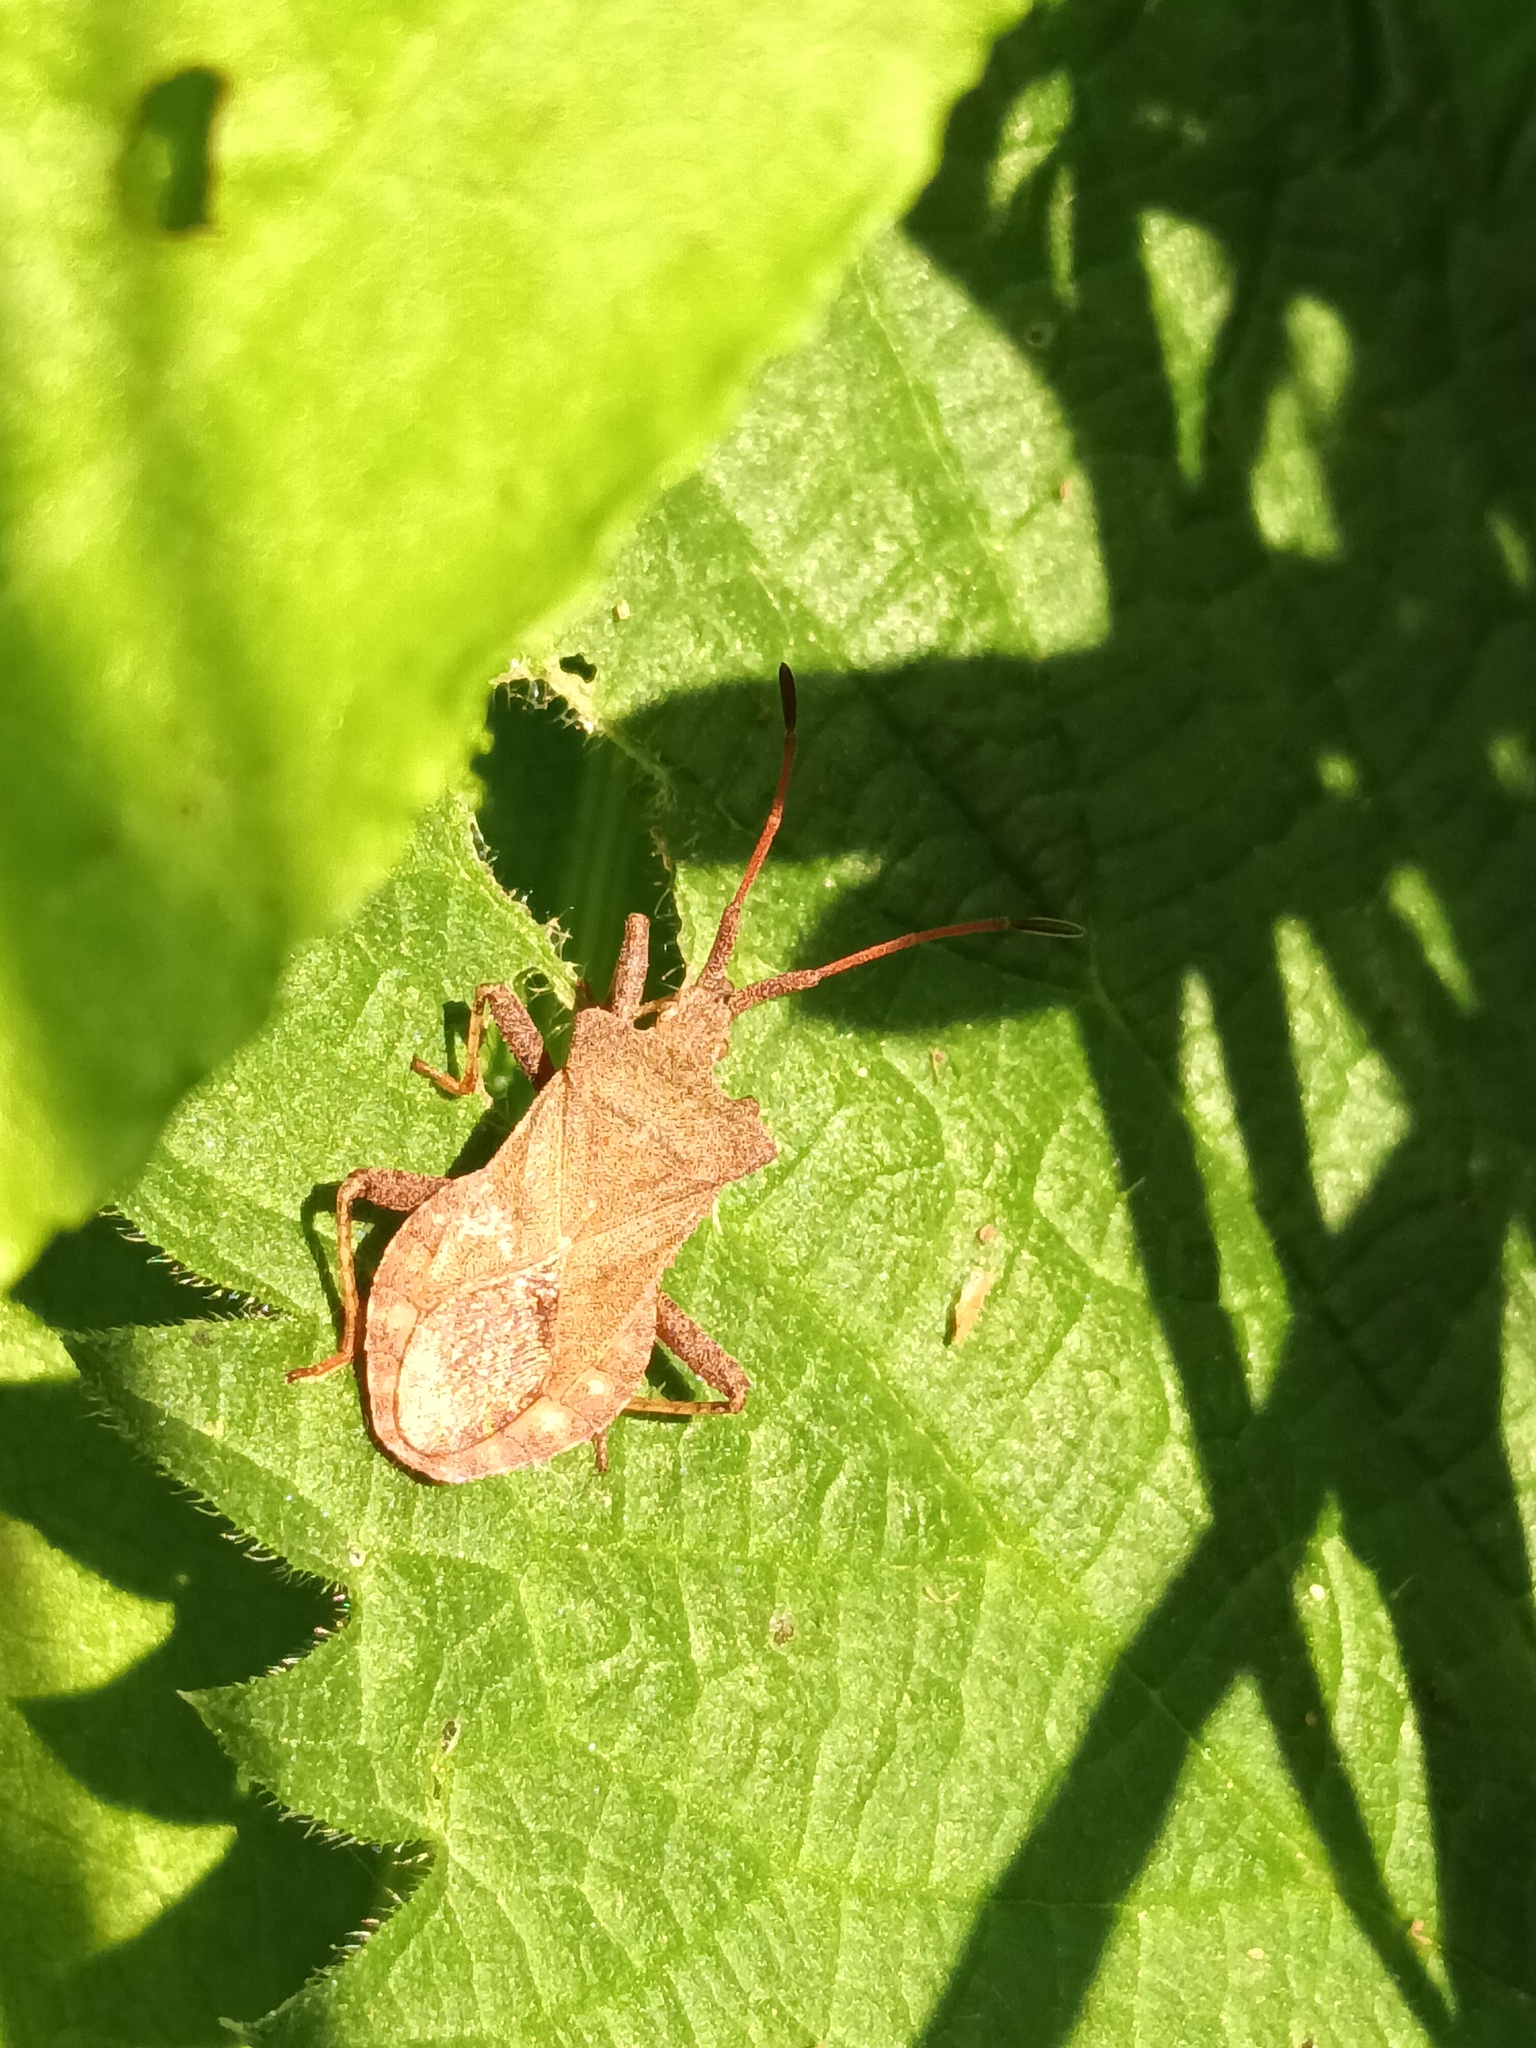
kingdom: Animalia
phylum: Arthropoda
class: Insecta
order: Hemiptera
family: Coreidae
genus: Coreus
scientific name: Coreus marginatus
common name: Dock bug
